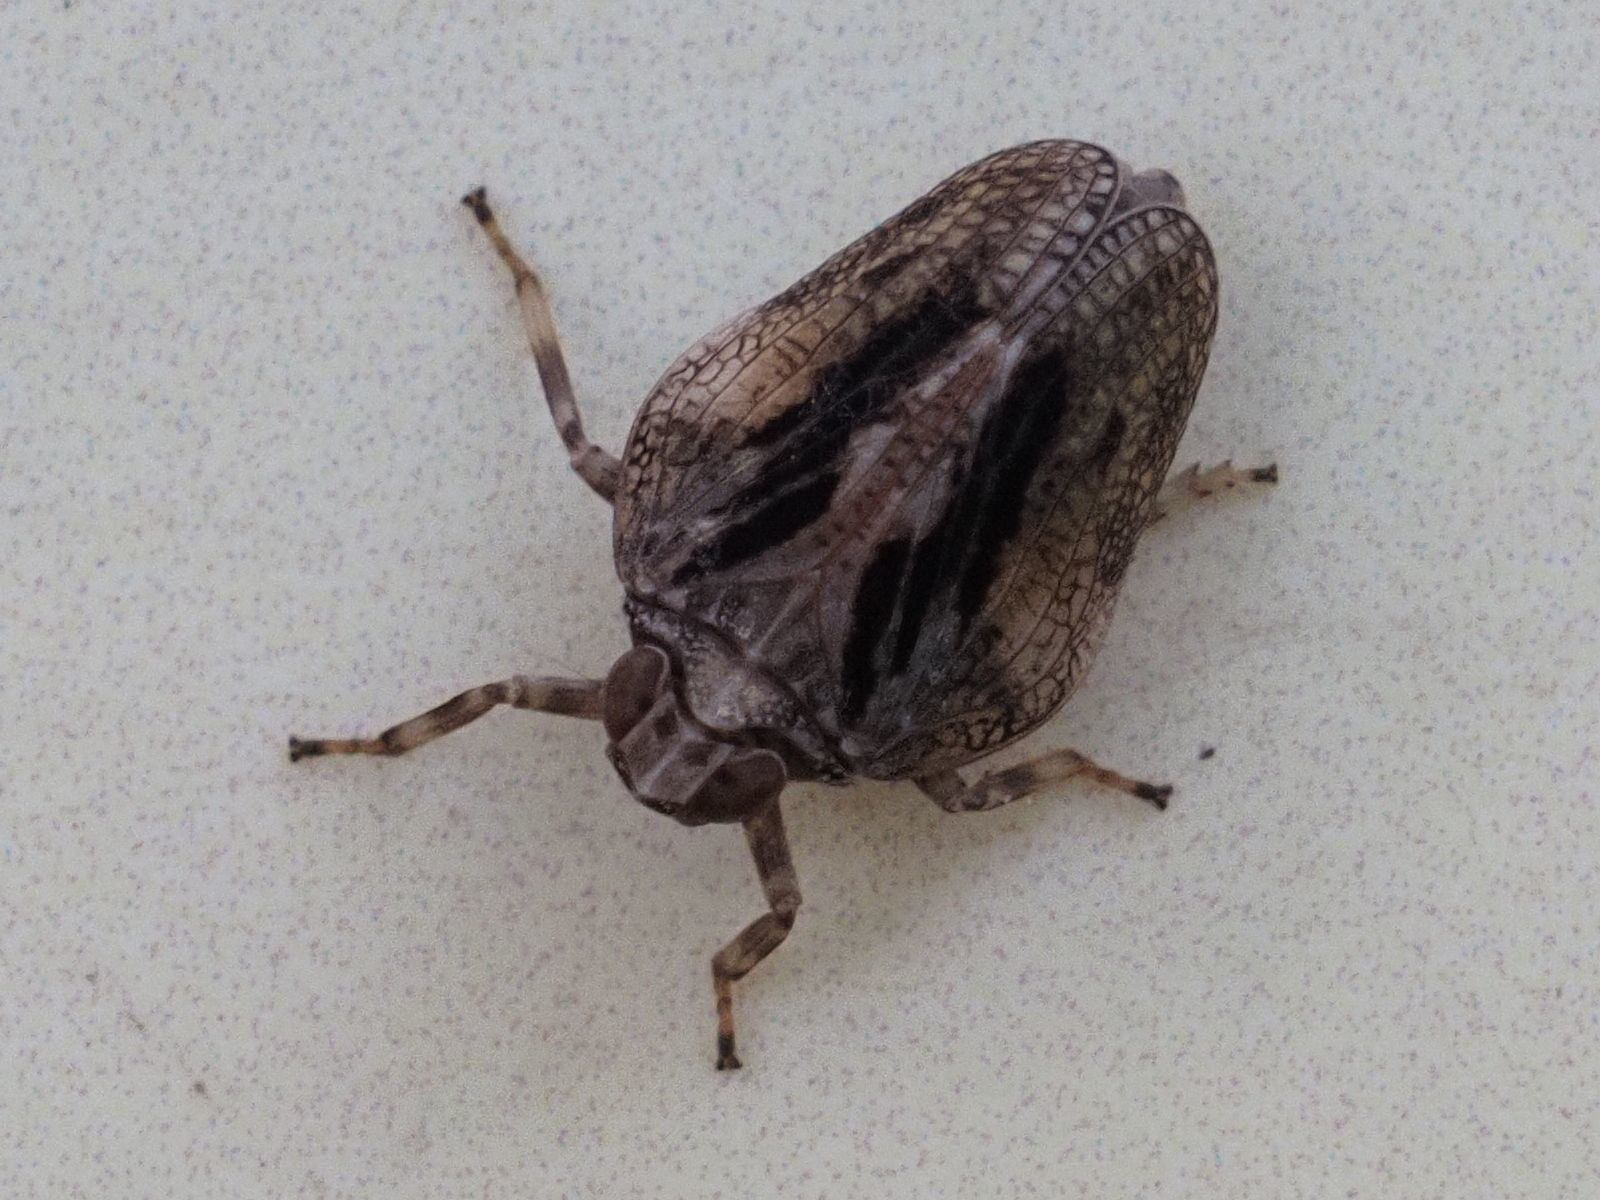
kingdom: Animalia
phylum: Arthropoda
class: Insecta
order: Hemiptera
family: Issidae
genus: Issus
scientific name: Issus coleoptratus
